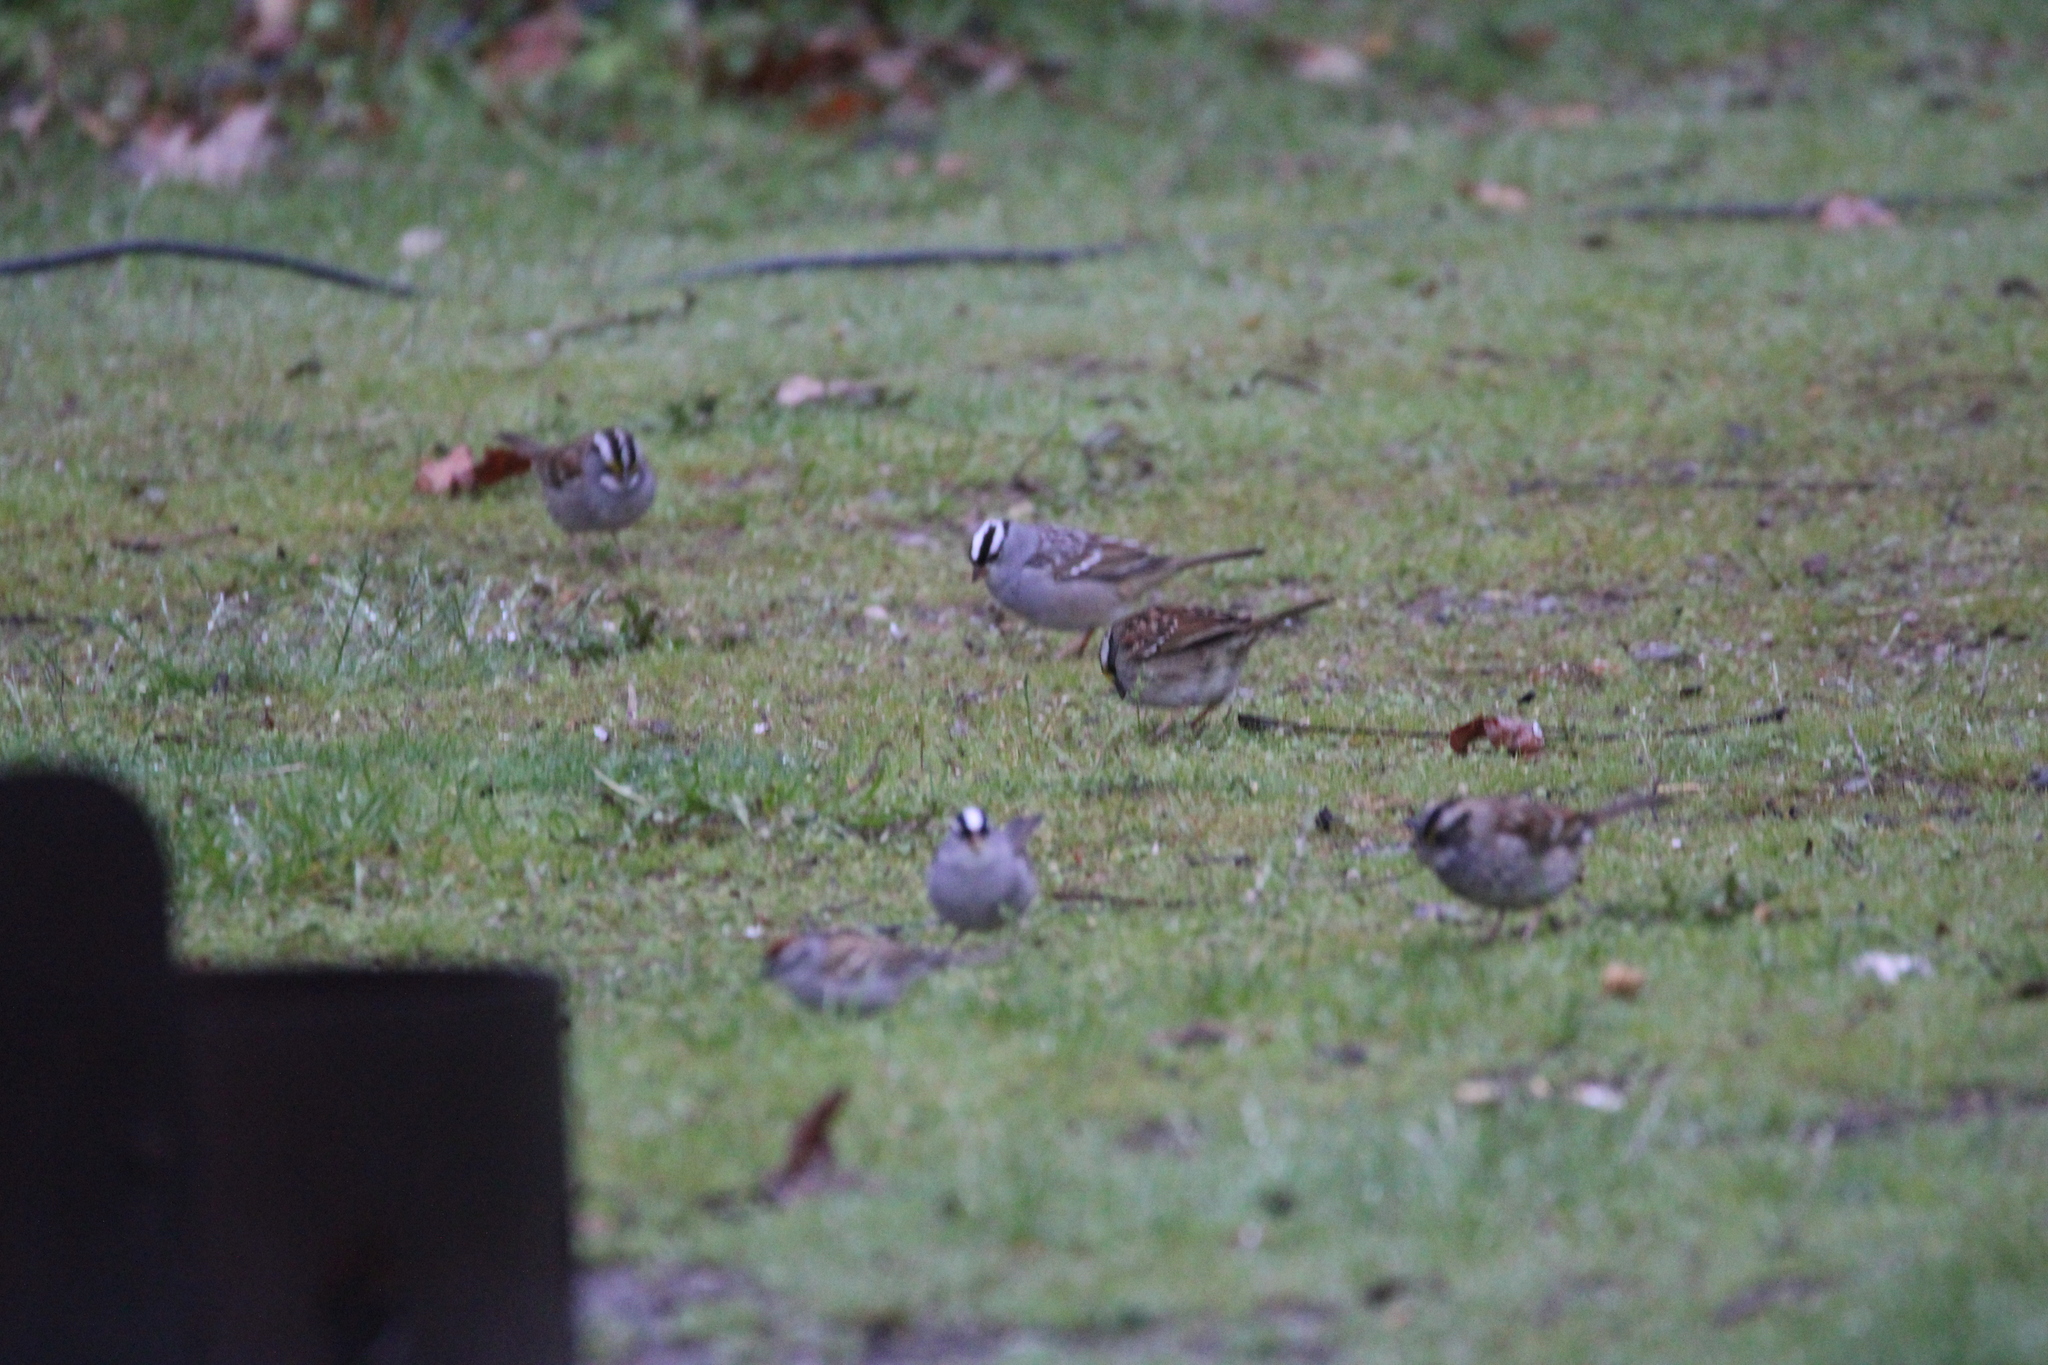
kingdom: Animalia
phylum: Chordata
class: Aves
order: Passeriformes
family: Passerellidae
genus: Zonotrichia
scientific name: Zonotrichia leucophrys
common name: White-crowned sparrow
